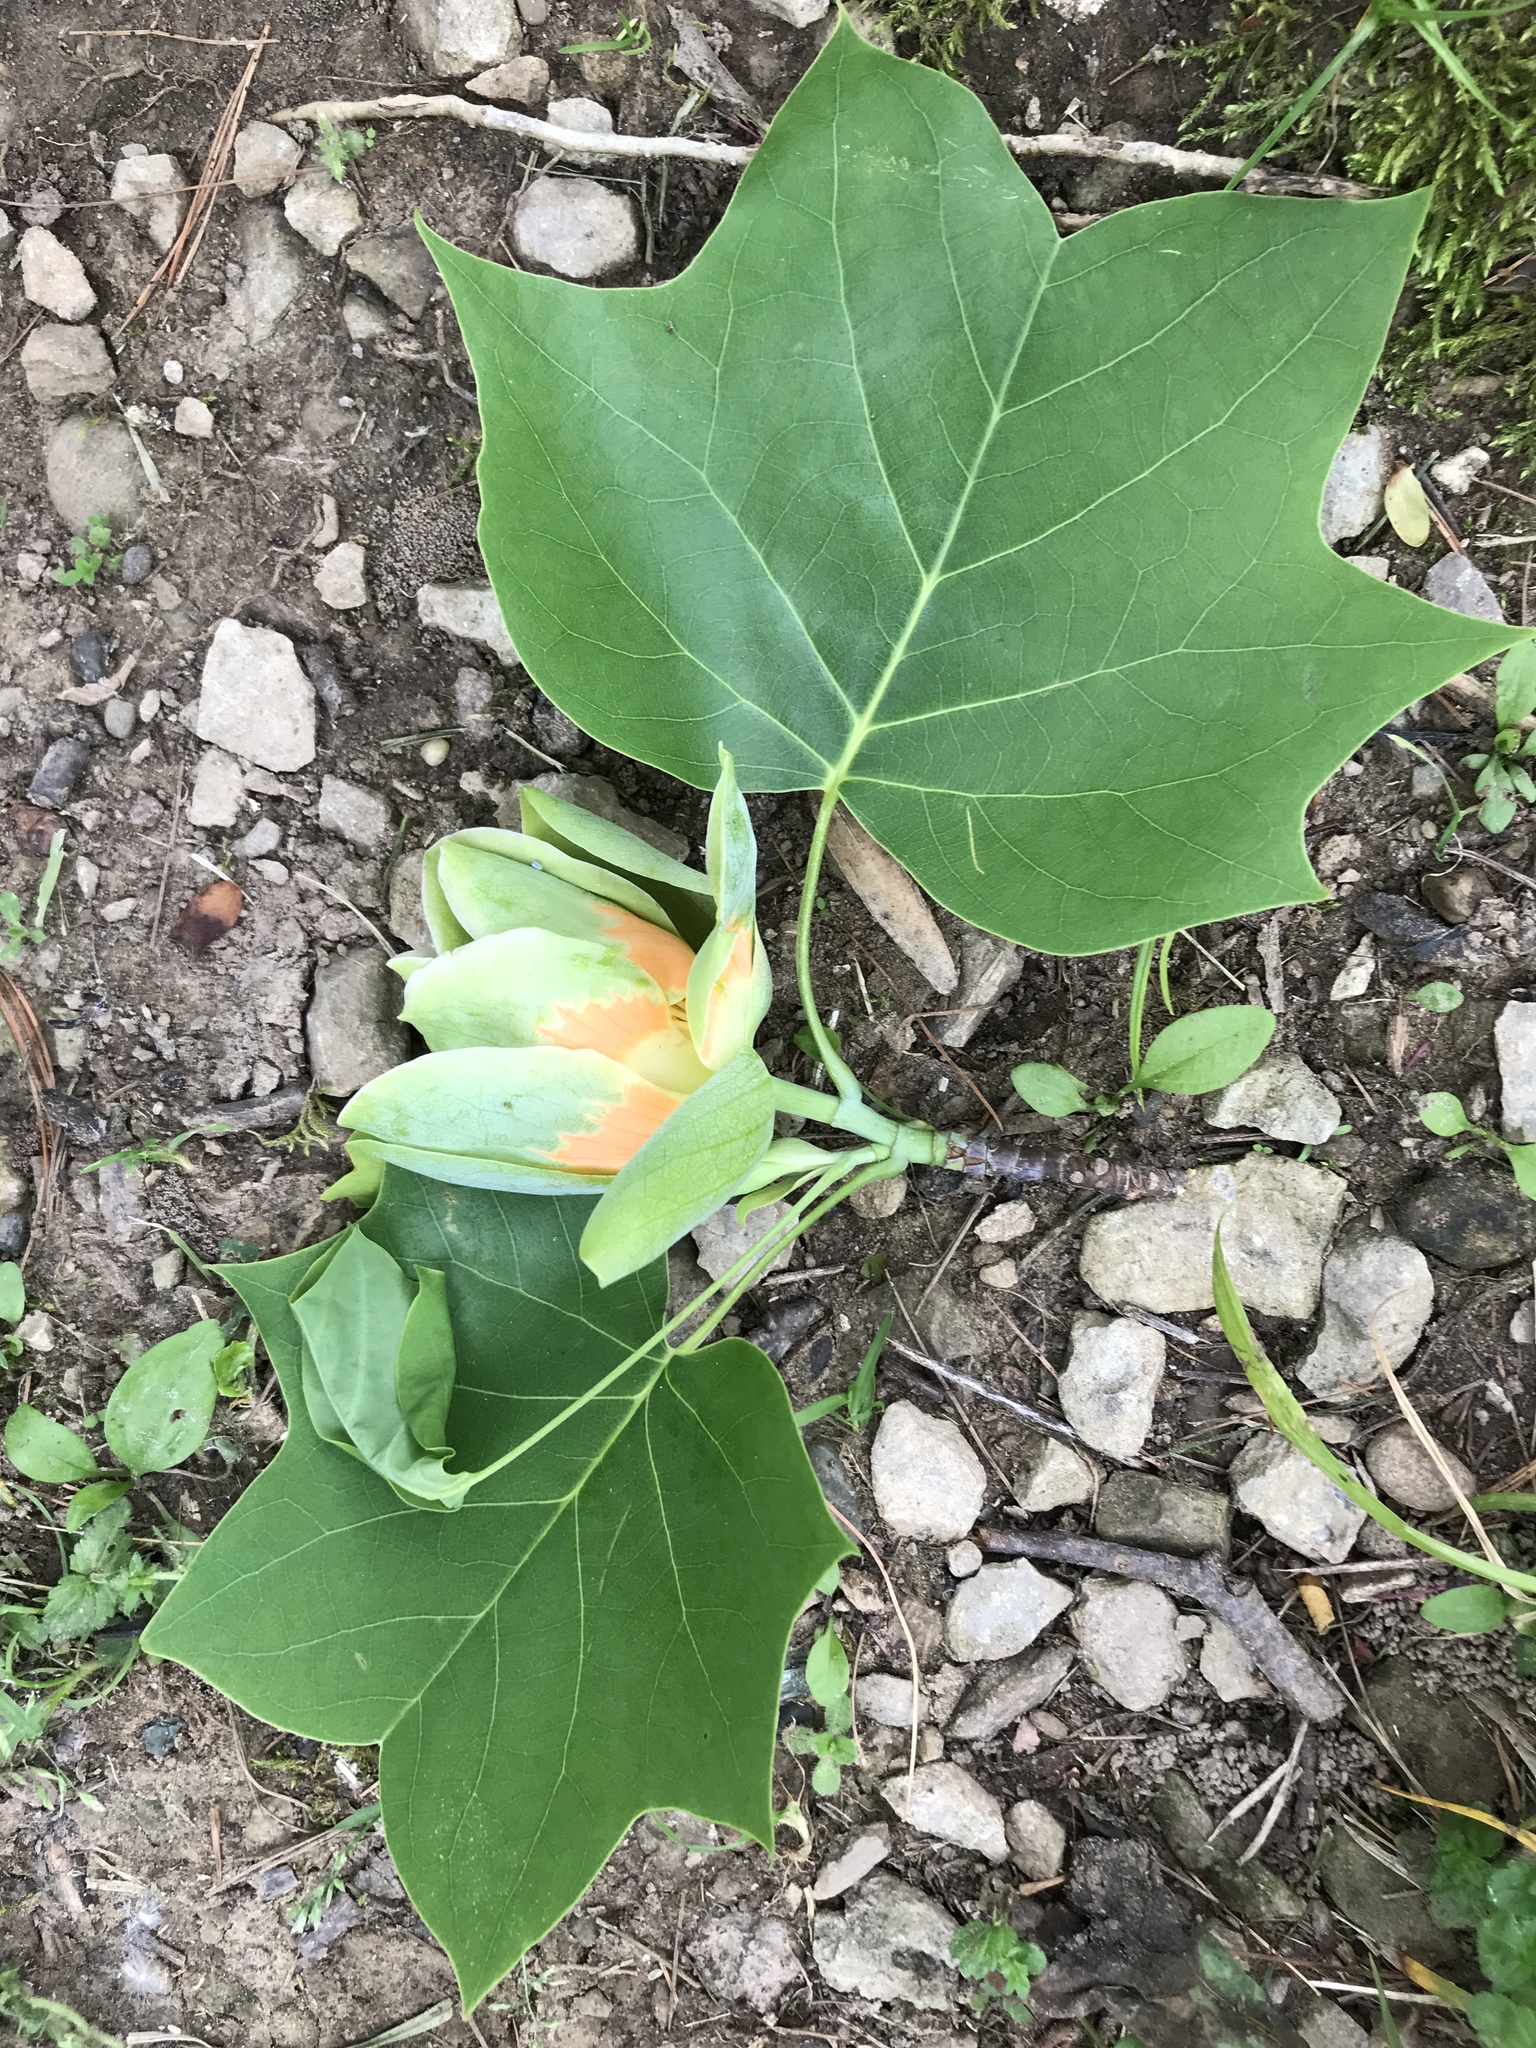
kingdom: Plantae
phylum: Tracheophyta
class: Magnoliopsida
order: Magnoliales
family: Magnoliaceae
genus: Liriodendron
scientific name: Liriodendron tulipifera
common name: Tulip tree
